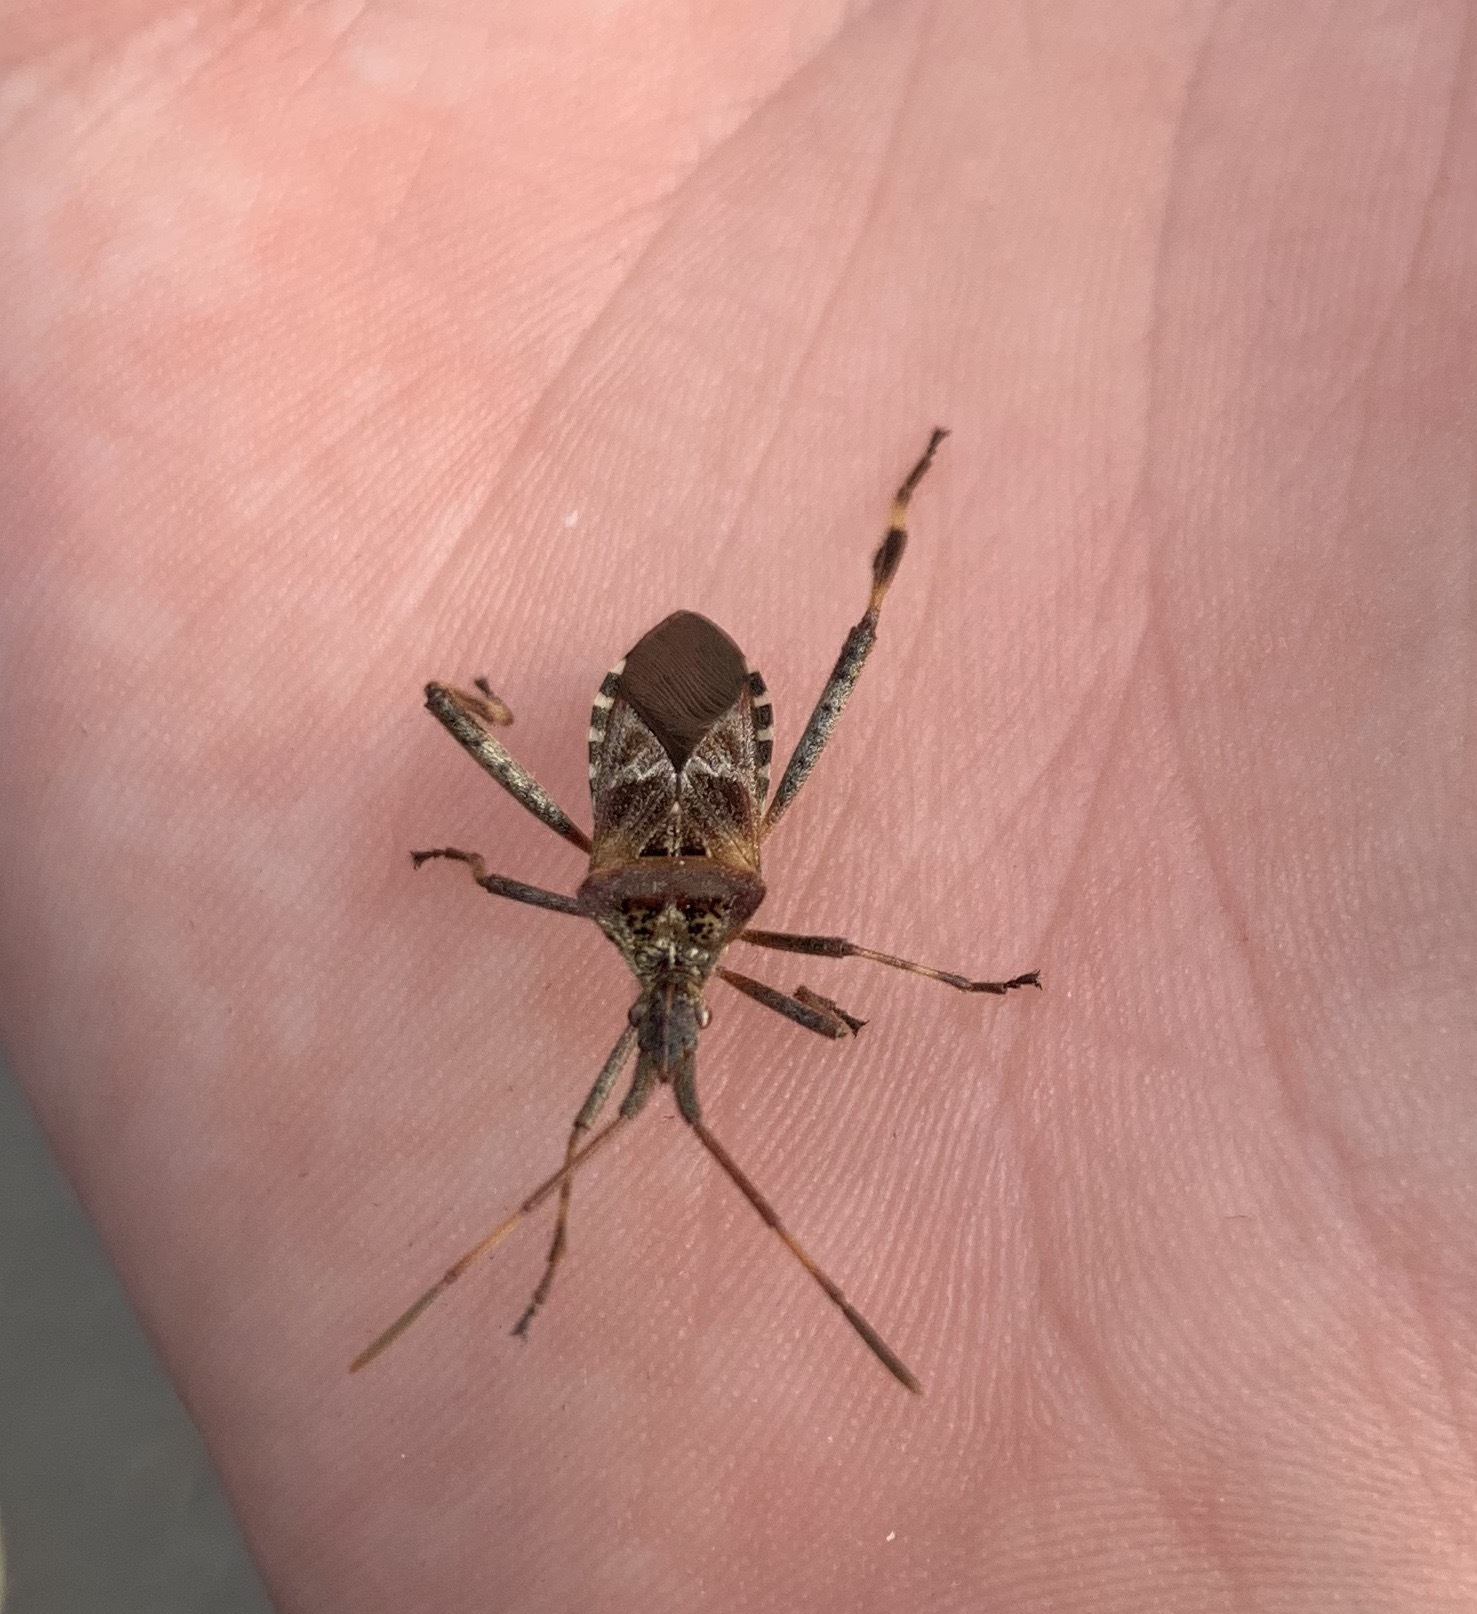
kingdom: Animalia
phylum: Arthropoda
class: Insecta
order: Hemiptera
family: Coreidae
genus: Leptoglossus
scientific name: Leptoglossus occidentalis
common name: Western conifer-seed bug
